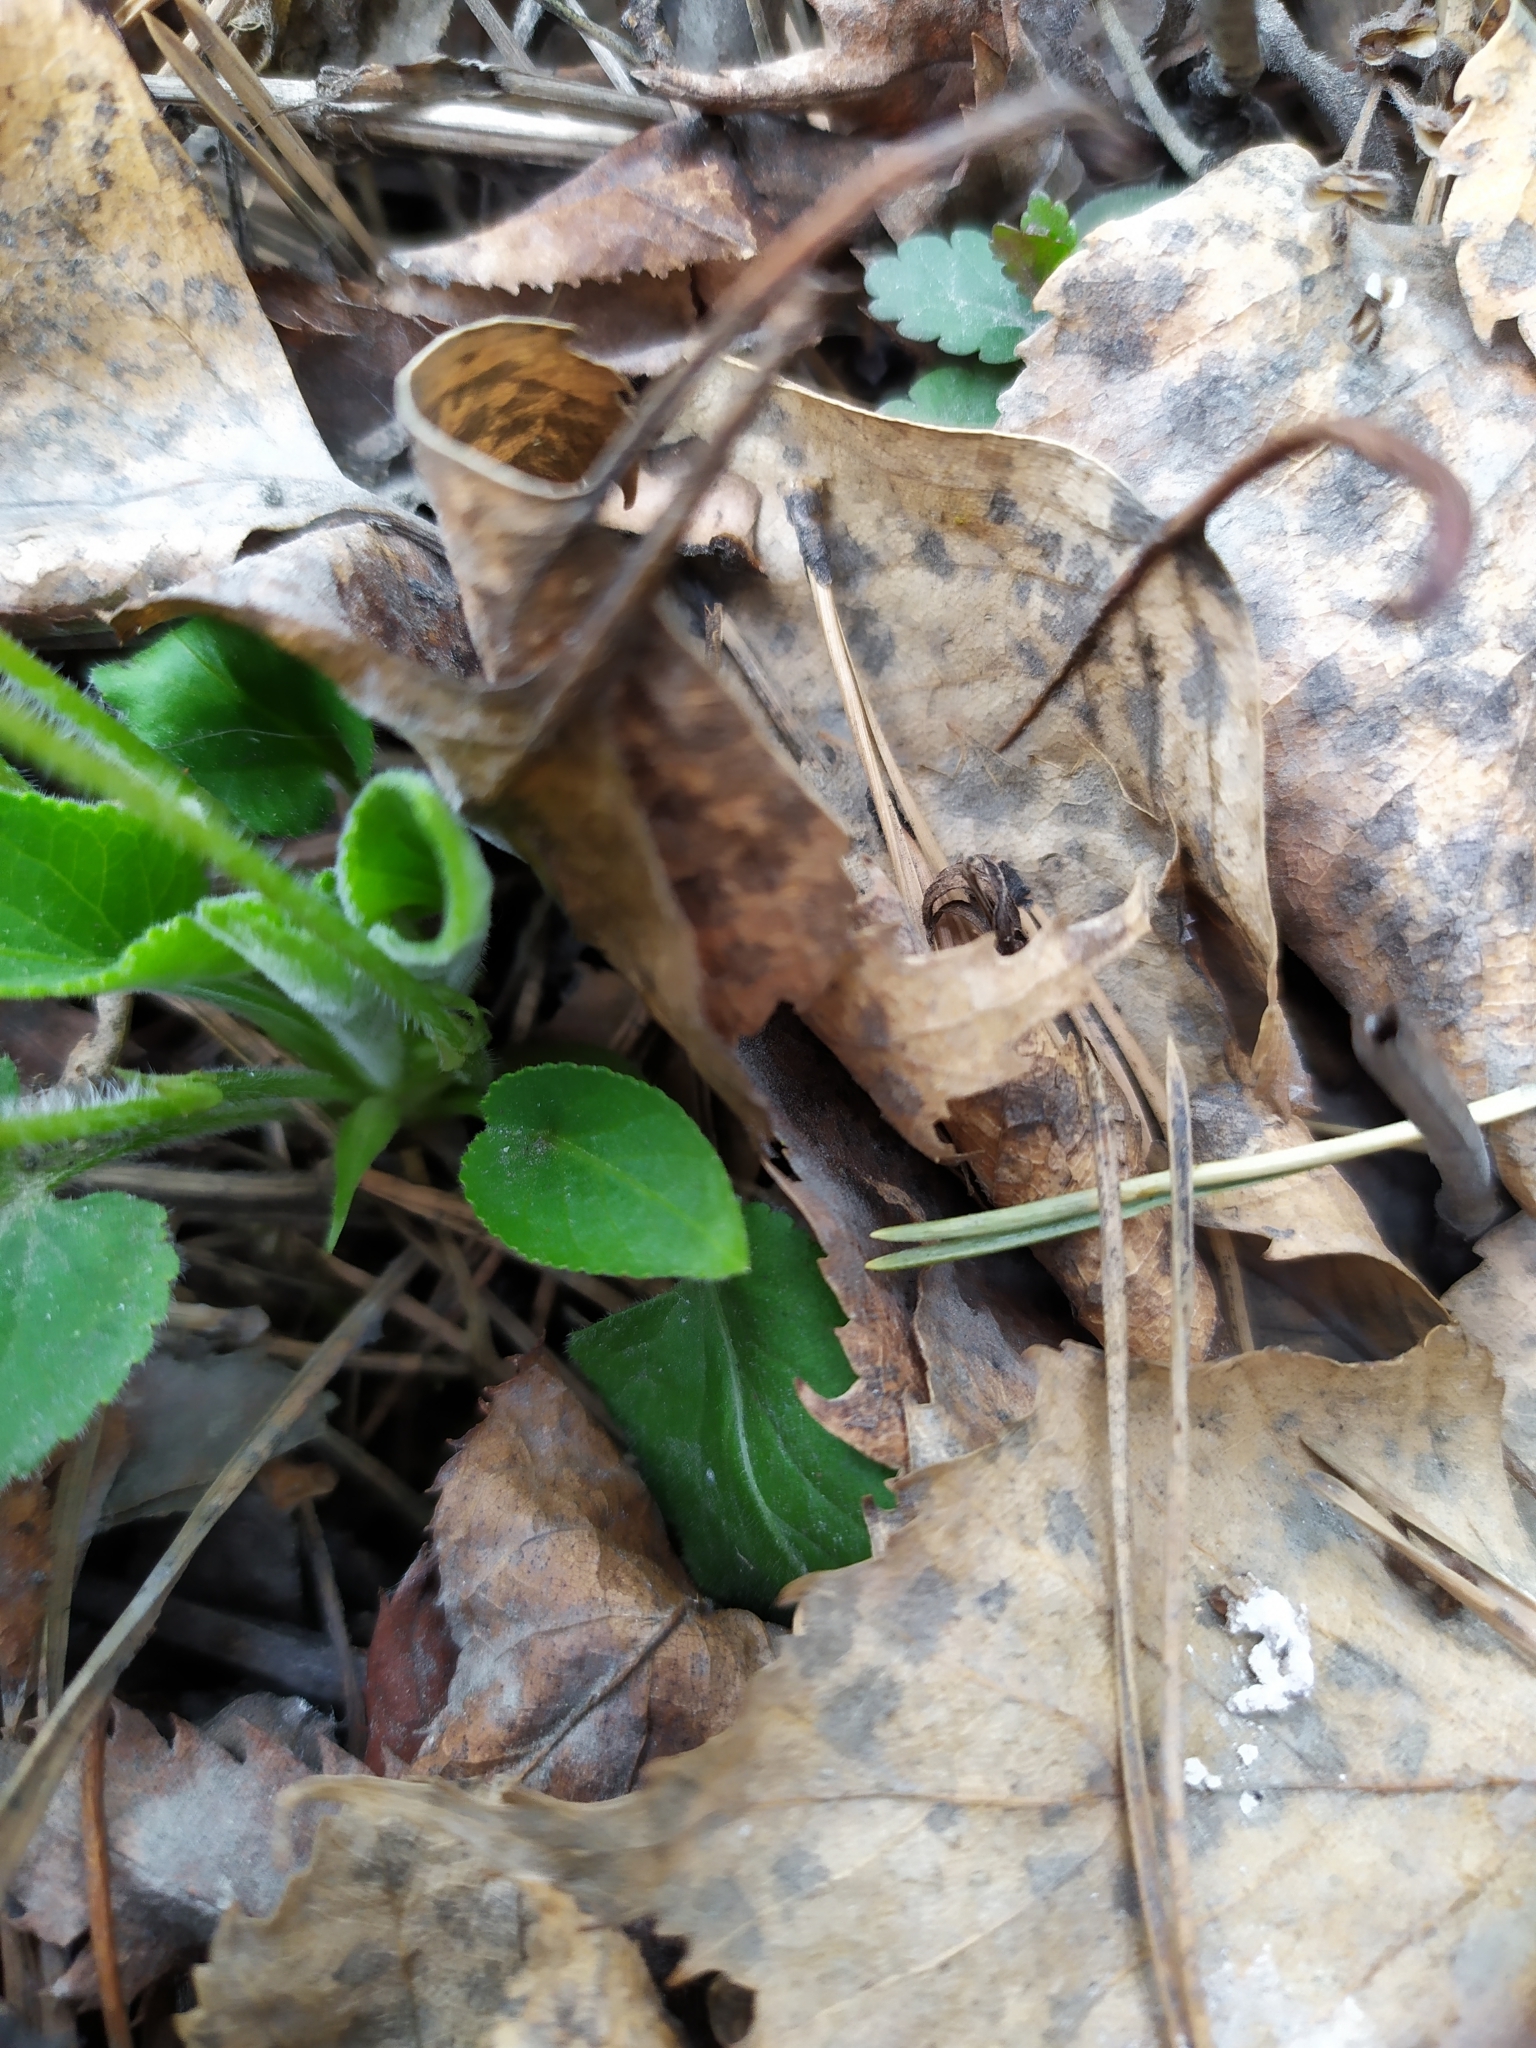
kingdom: Plantae
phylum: Tracheophyta
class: Magnoliopsida
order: Malpighiales
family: Violaceae
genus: Viola
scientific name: Viola hirta
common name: Hairy violet
